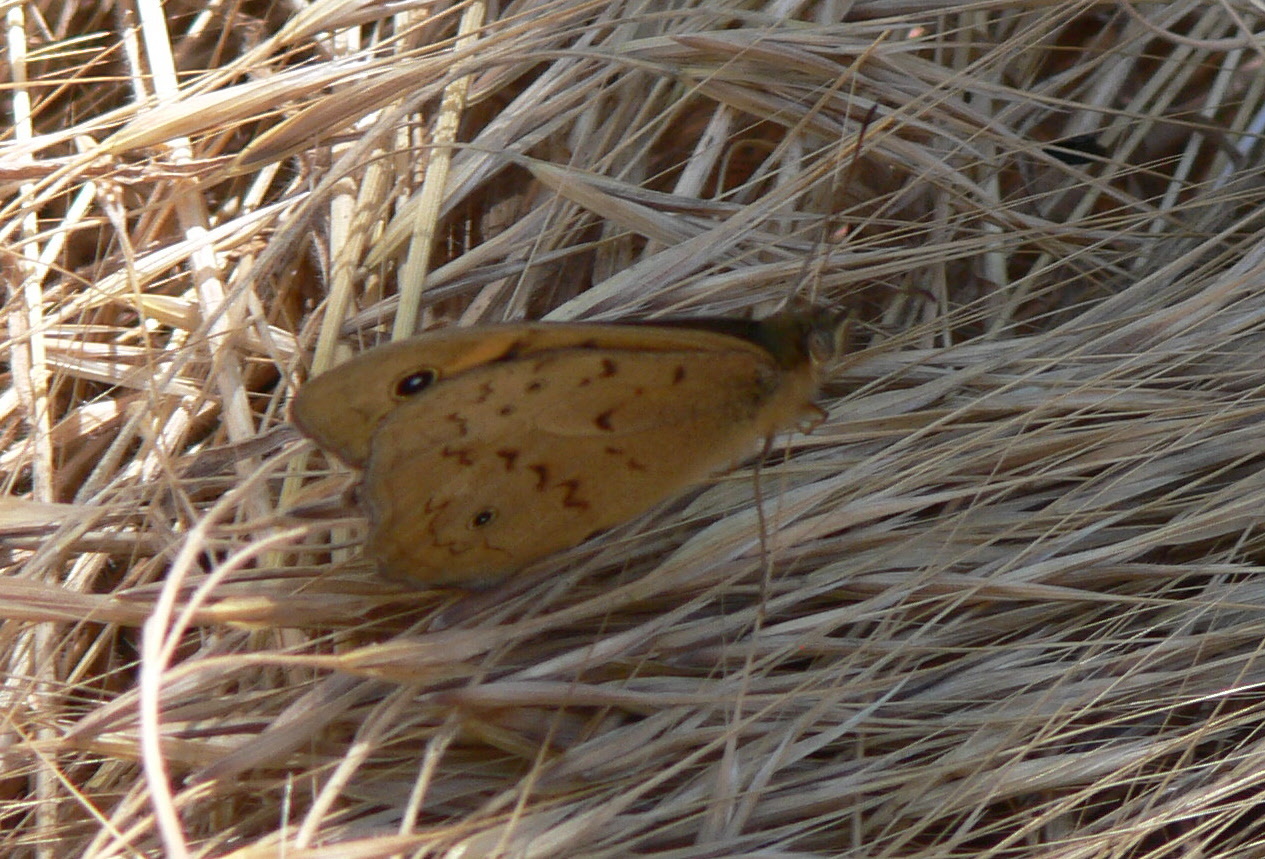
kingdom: Animalia
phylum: Arthropoda
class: Insecta
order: Lepidoptera
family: Nymphalidae
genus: Junonia
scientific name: Junonia villida
